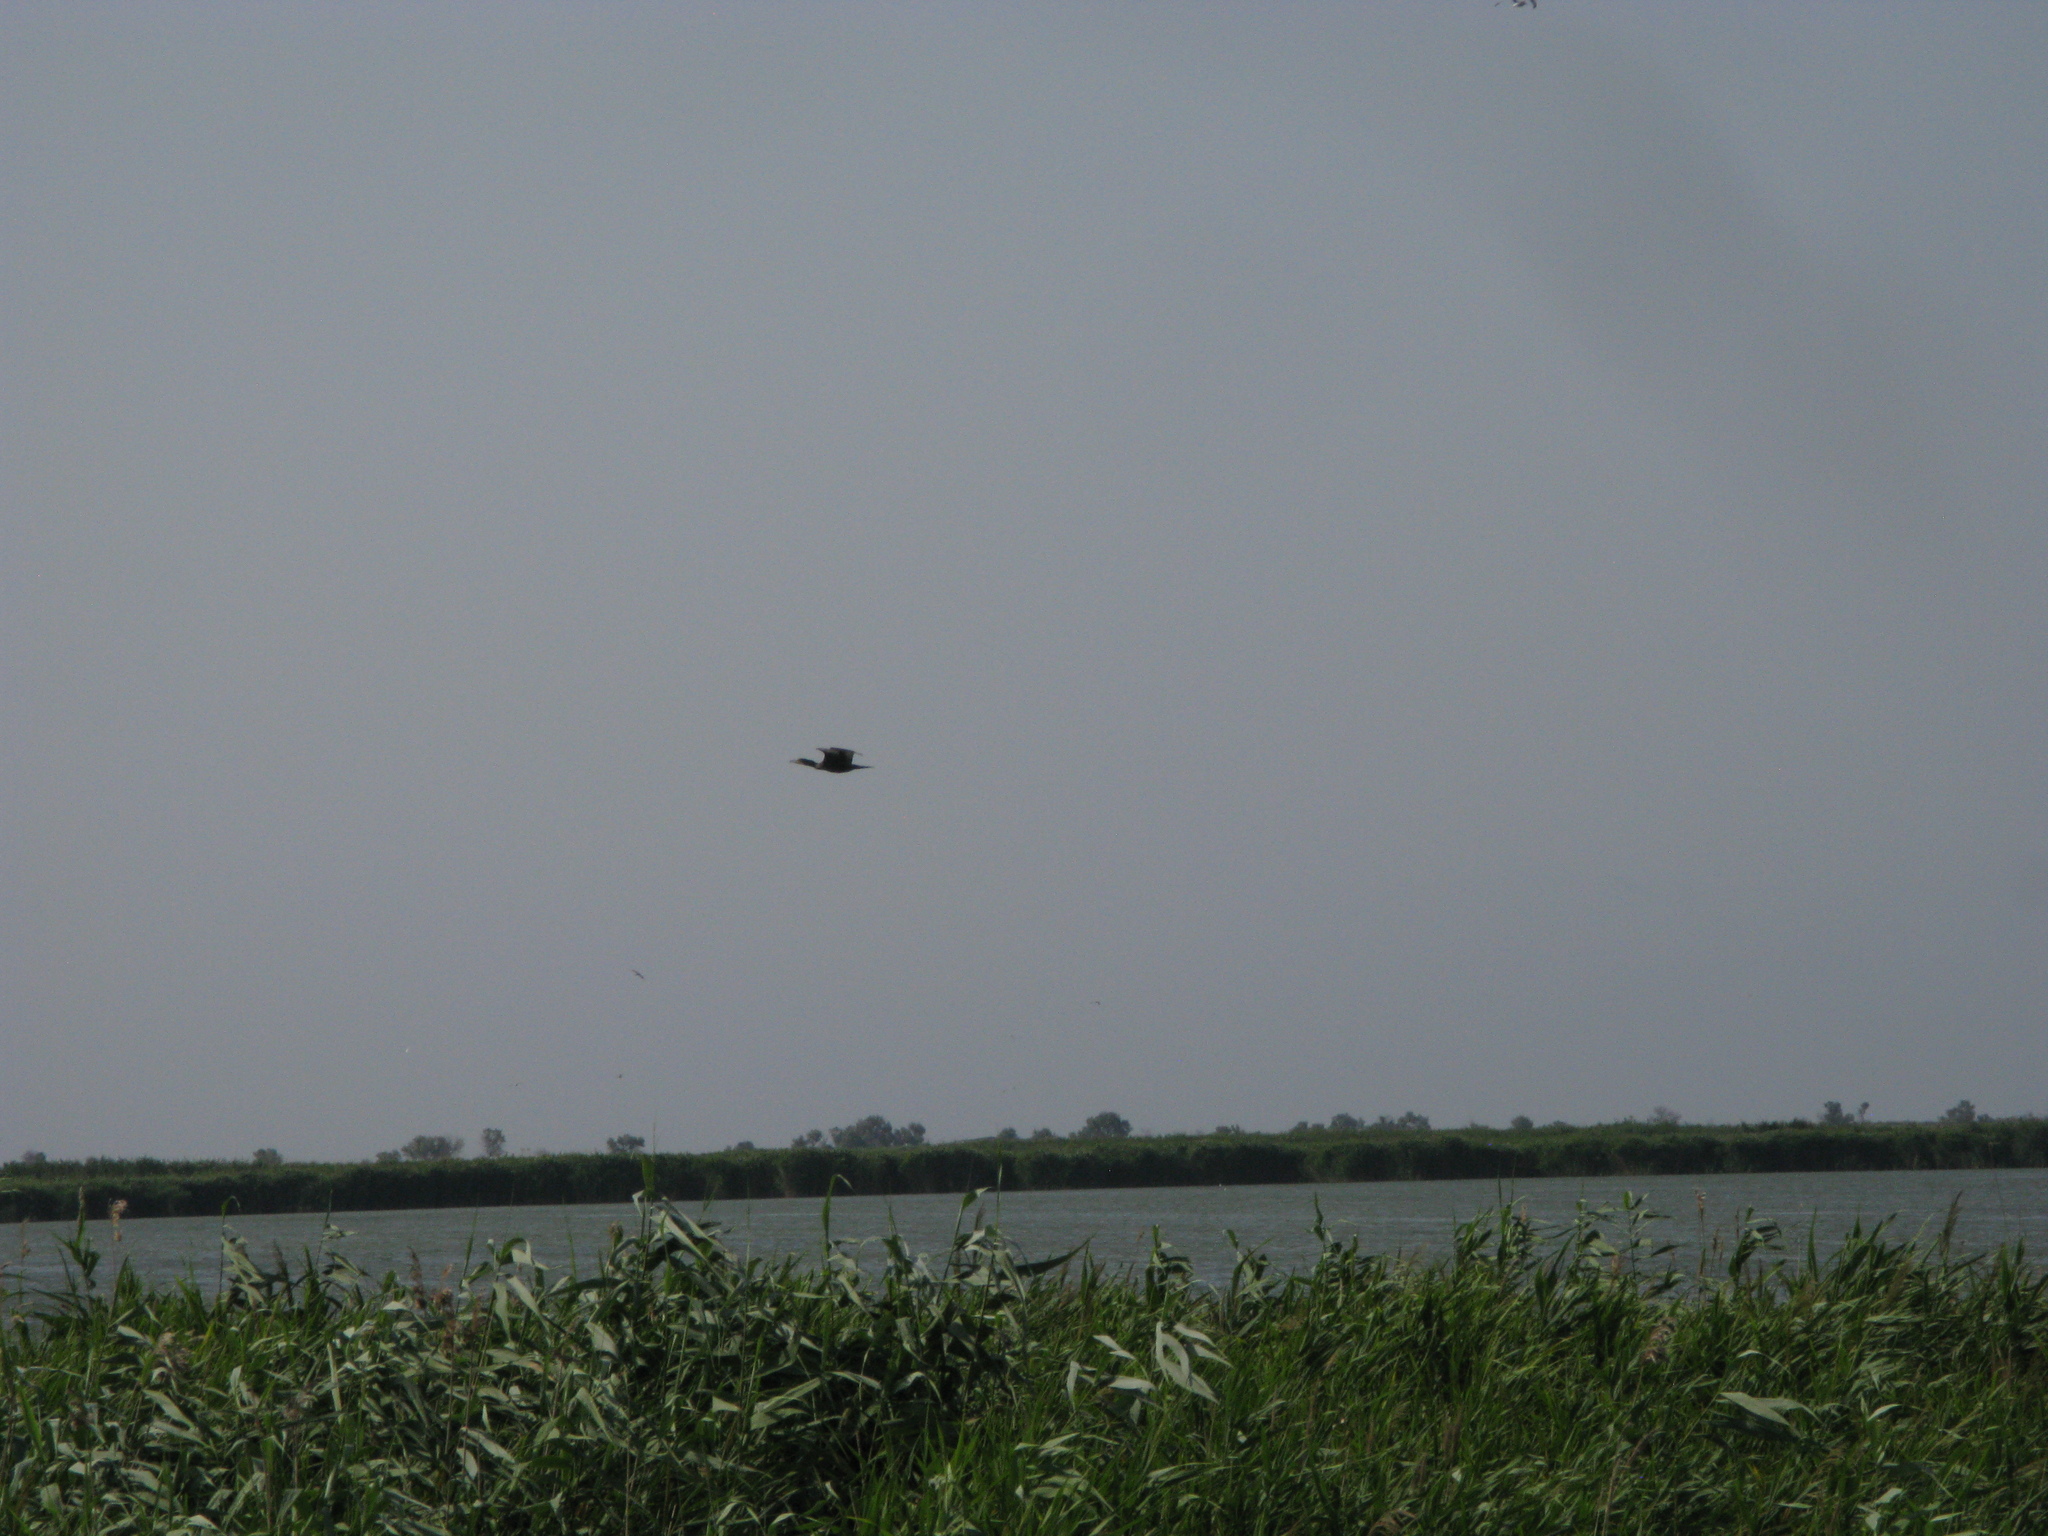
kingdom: Animalia
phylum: Chordata
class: Aves
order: Suliformes
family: Phalacrocoracidae
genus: Phalacrocorax
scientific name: Phalacrocorax carbo
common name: Great cormorant
